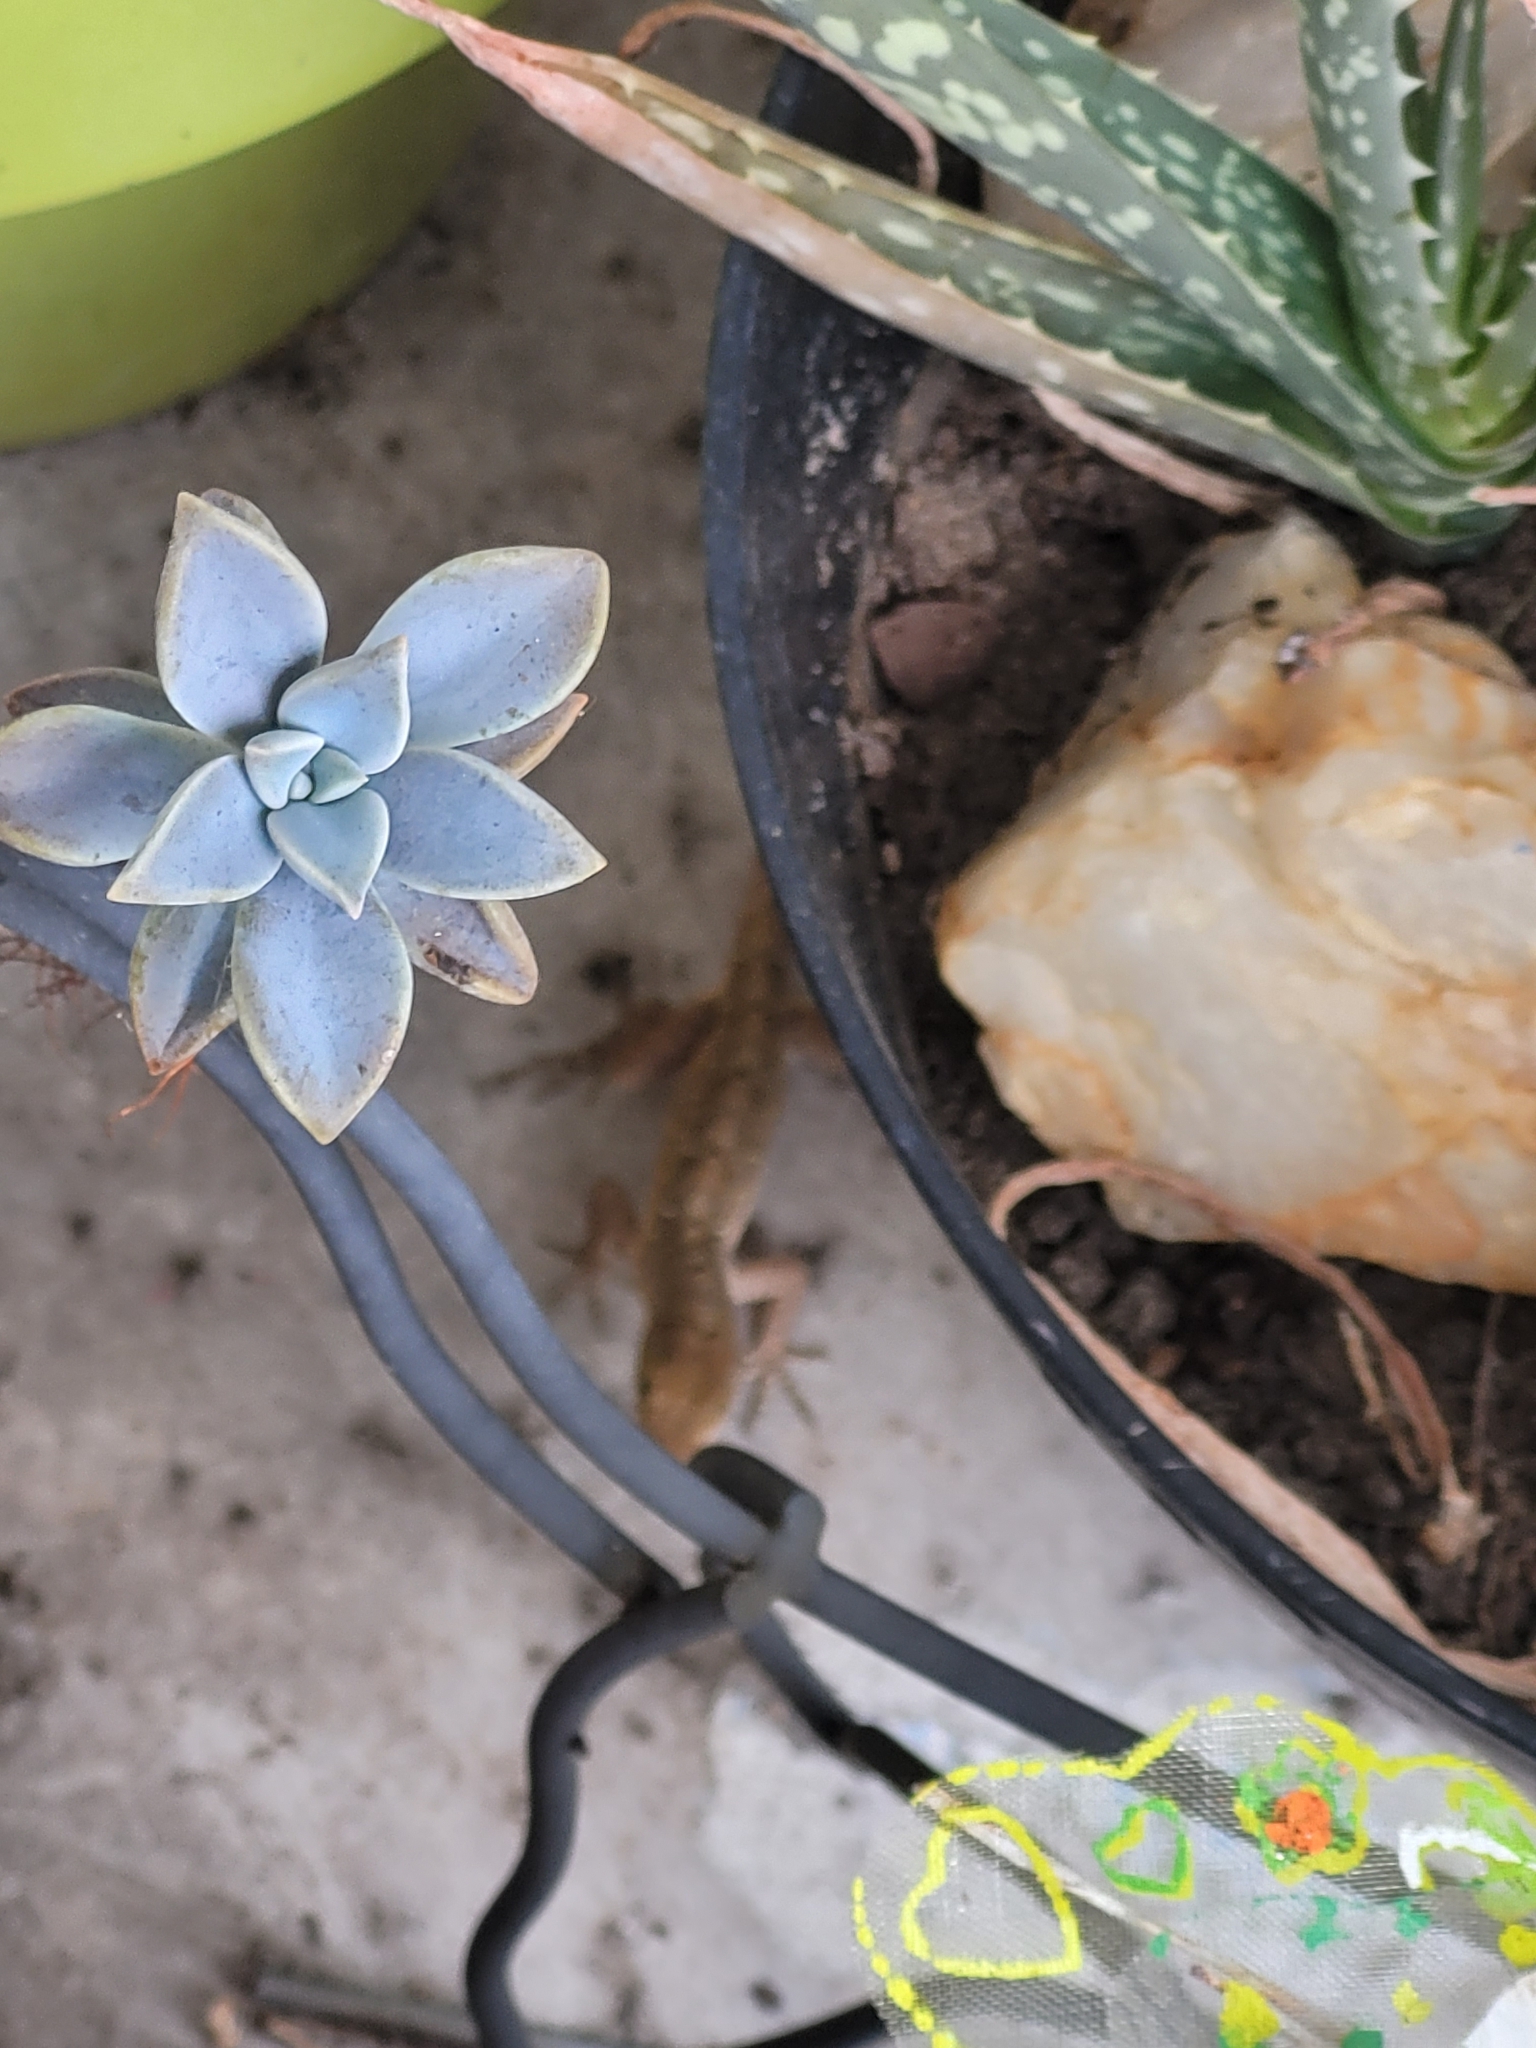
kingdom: Animalia
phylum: Chordata
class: Squamata
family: Dactyloidae
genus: Anolis
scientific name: Anolis sagrei
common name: Brown anole
